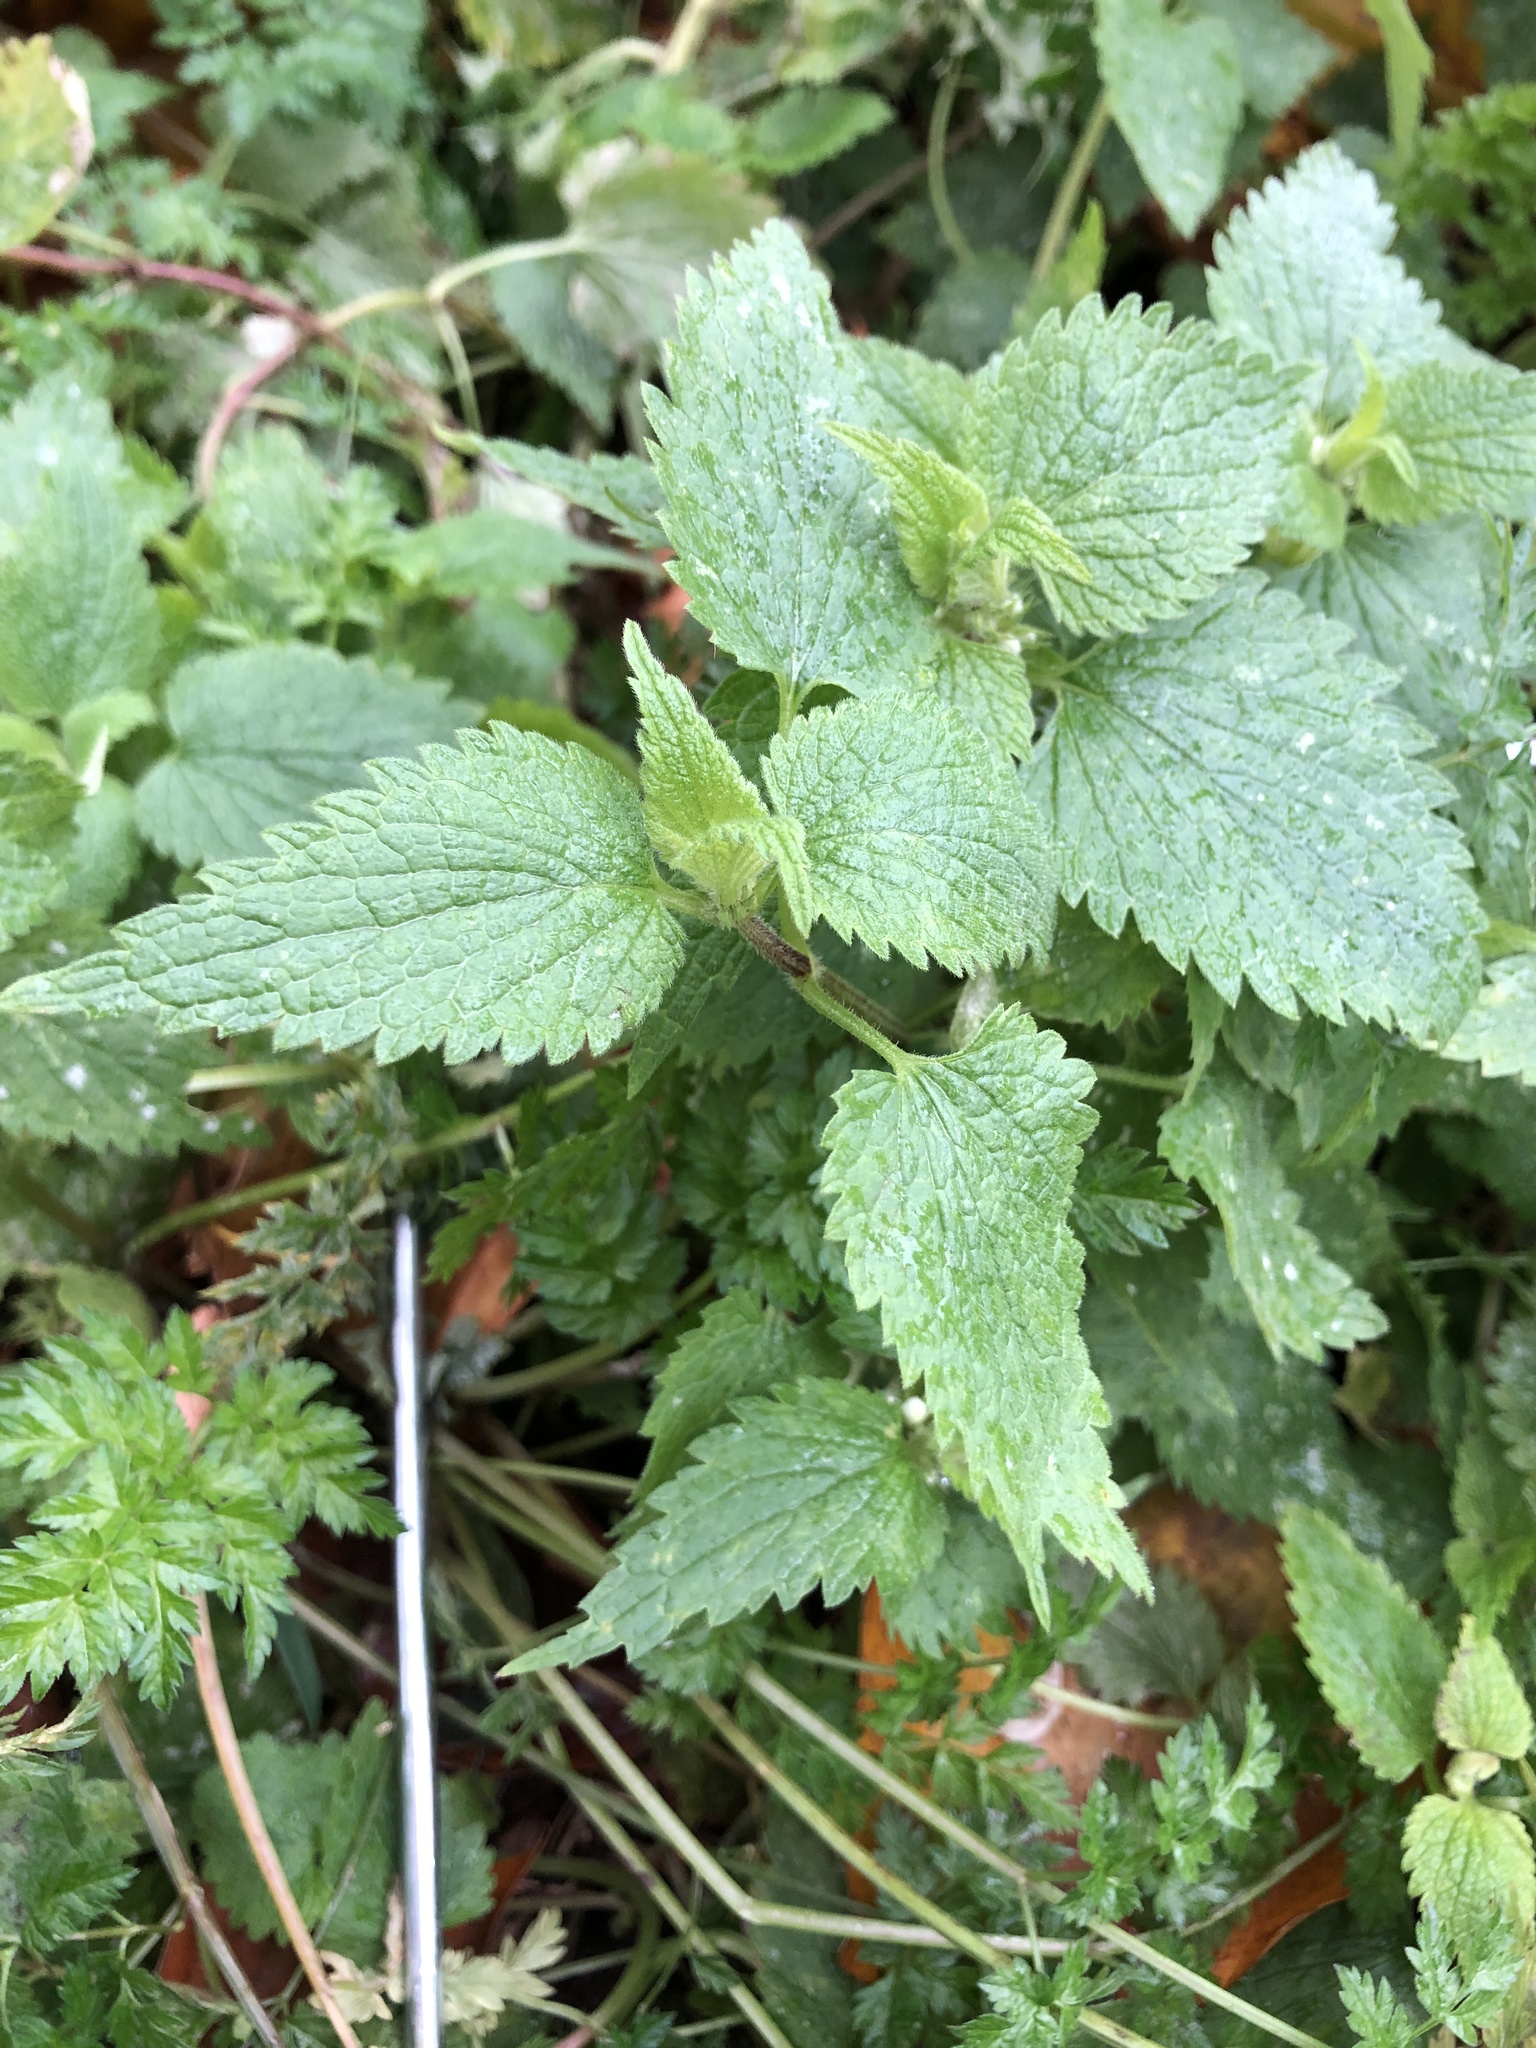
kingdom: Plantae
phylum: Tracheophyta
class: Magnoliopsida
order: Lamiales
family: Lamiaceae
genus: Lamium
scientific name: Lamium album
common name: White dead-nettle
